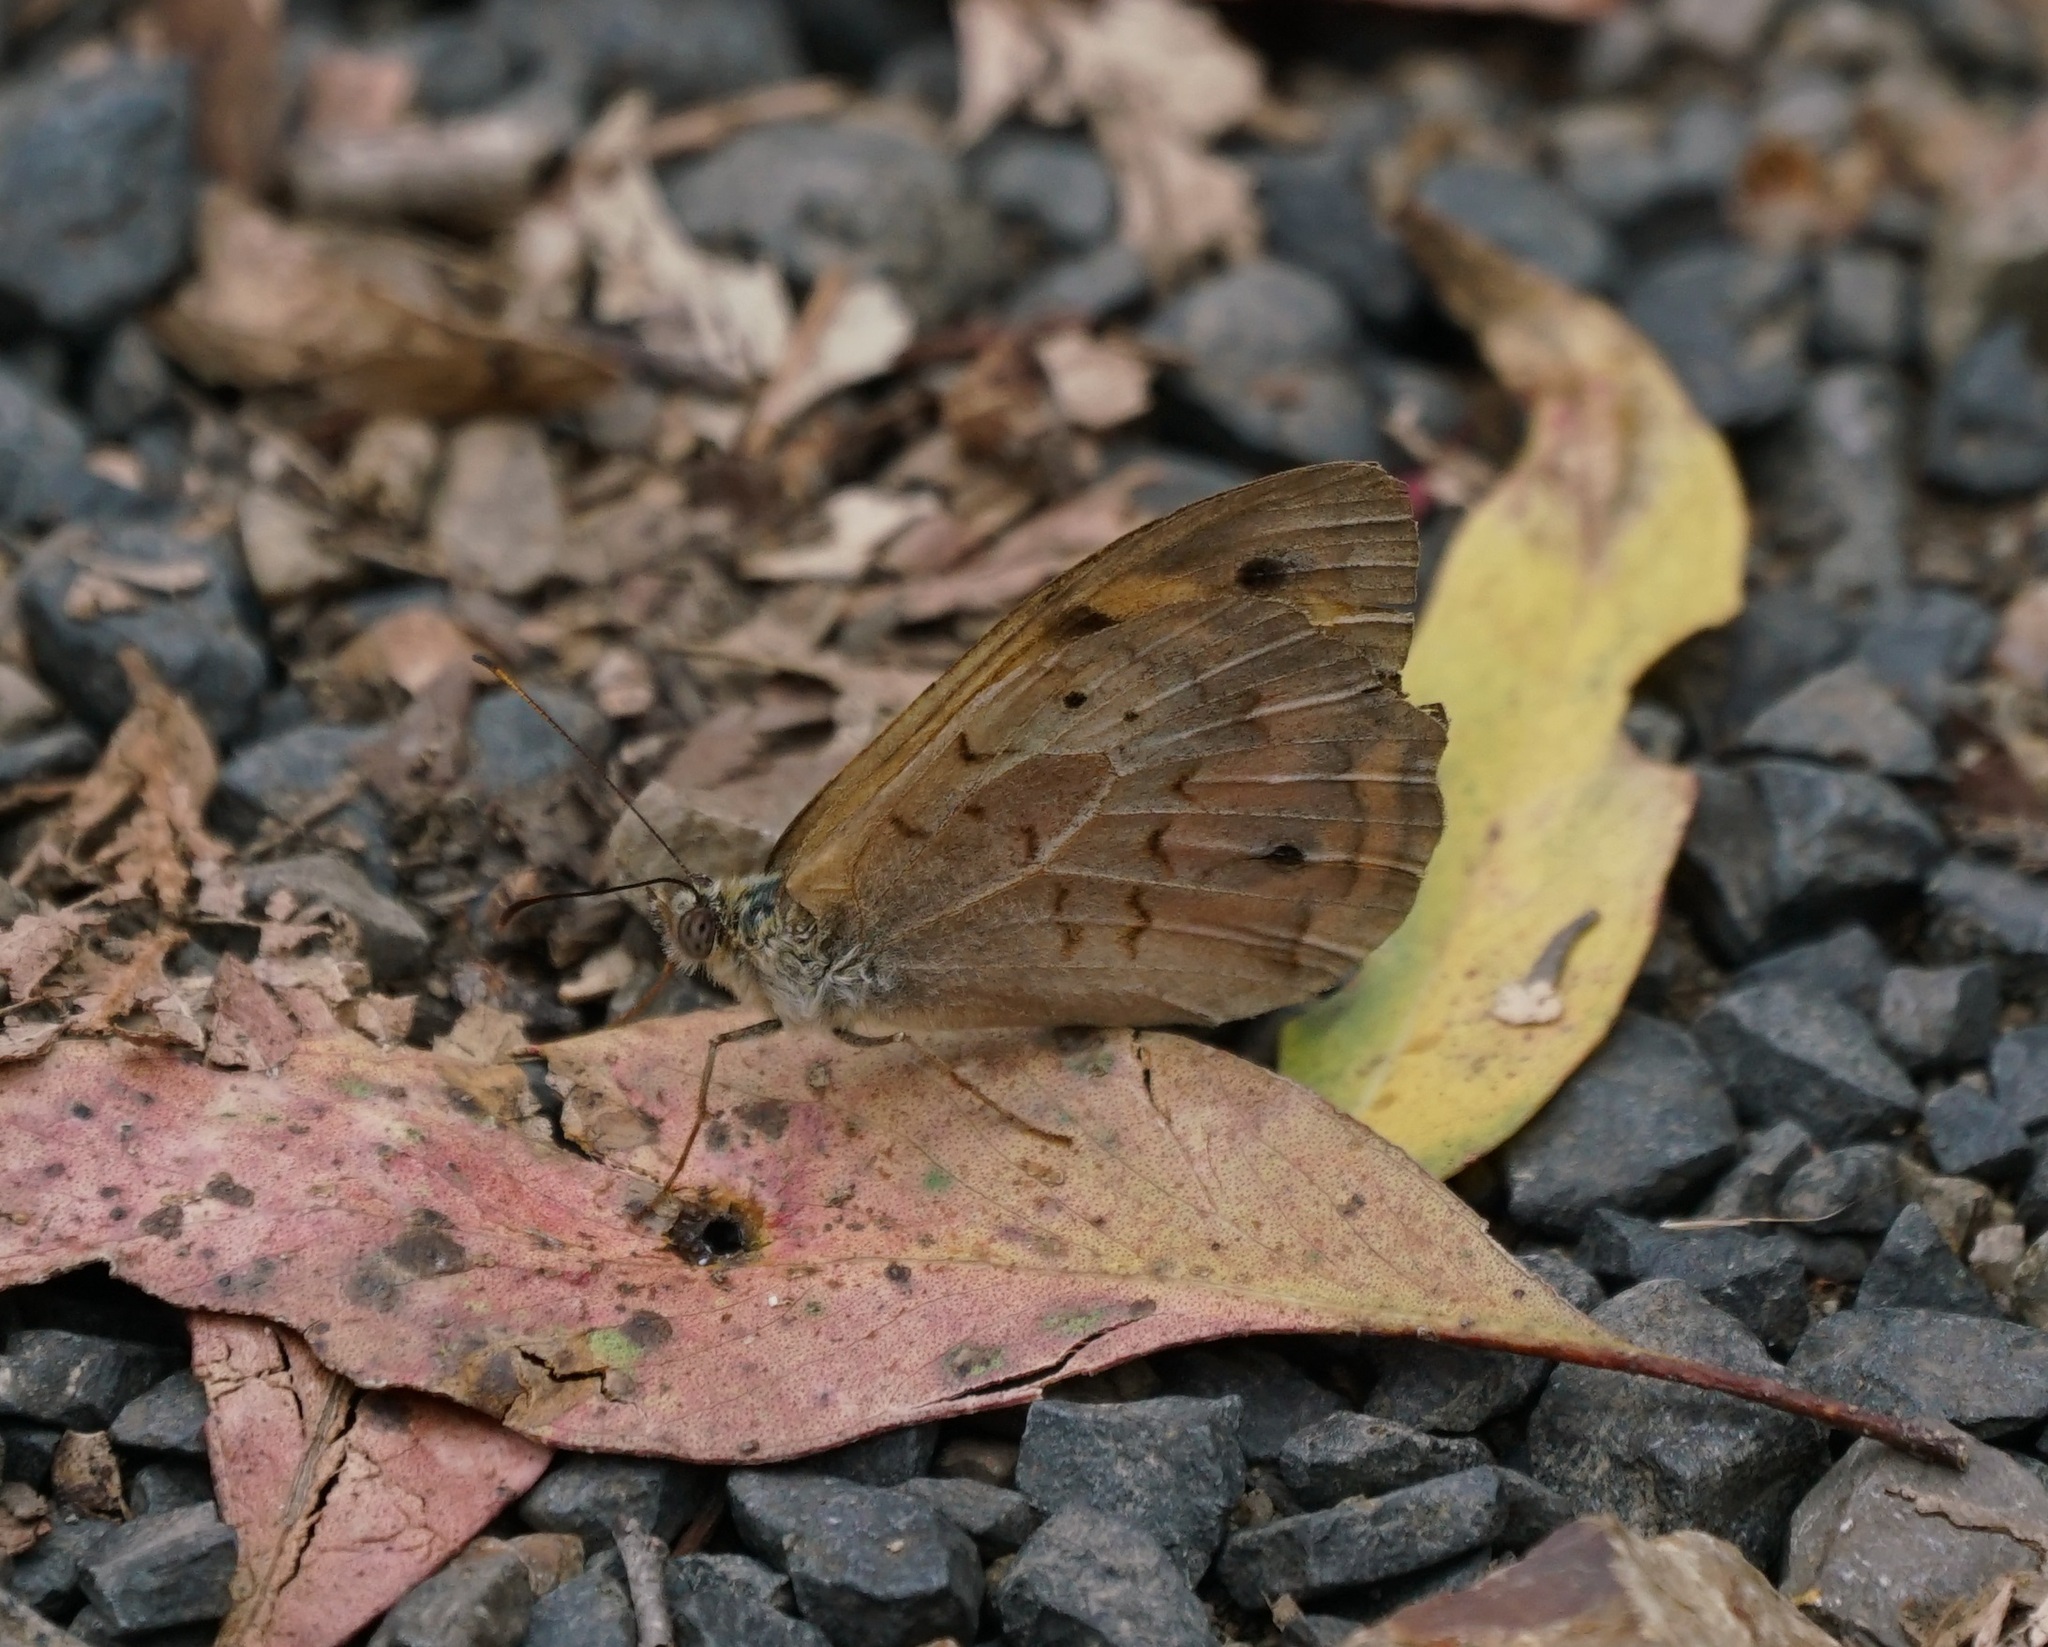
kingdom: Animalia
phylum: Arthropoda
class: Insecta
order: Lepidoptera
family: Nymphalidae
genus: Heteronympha
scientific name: Heteronympha merope
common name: Common brown
